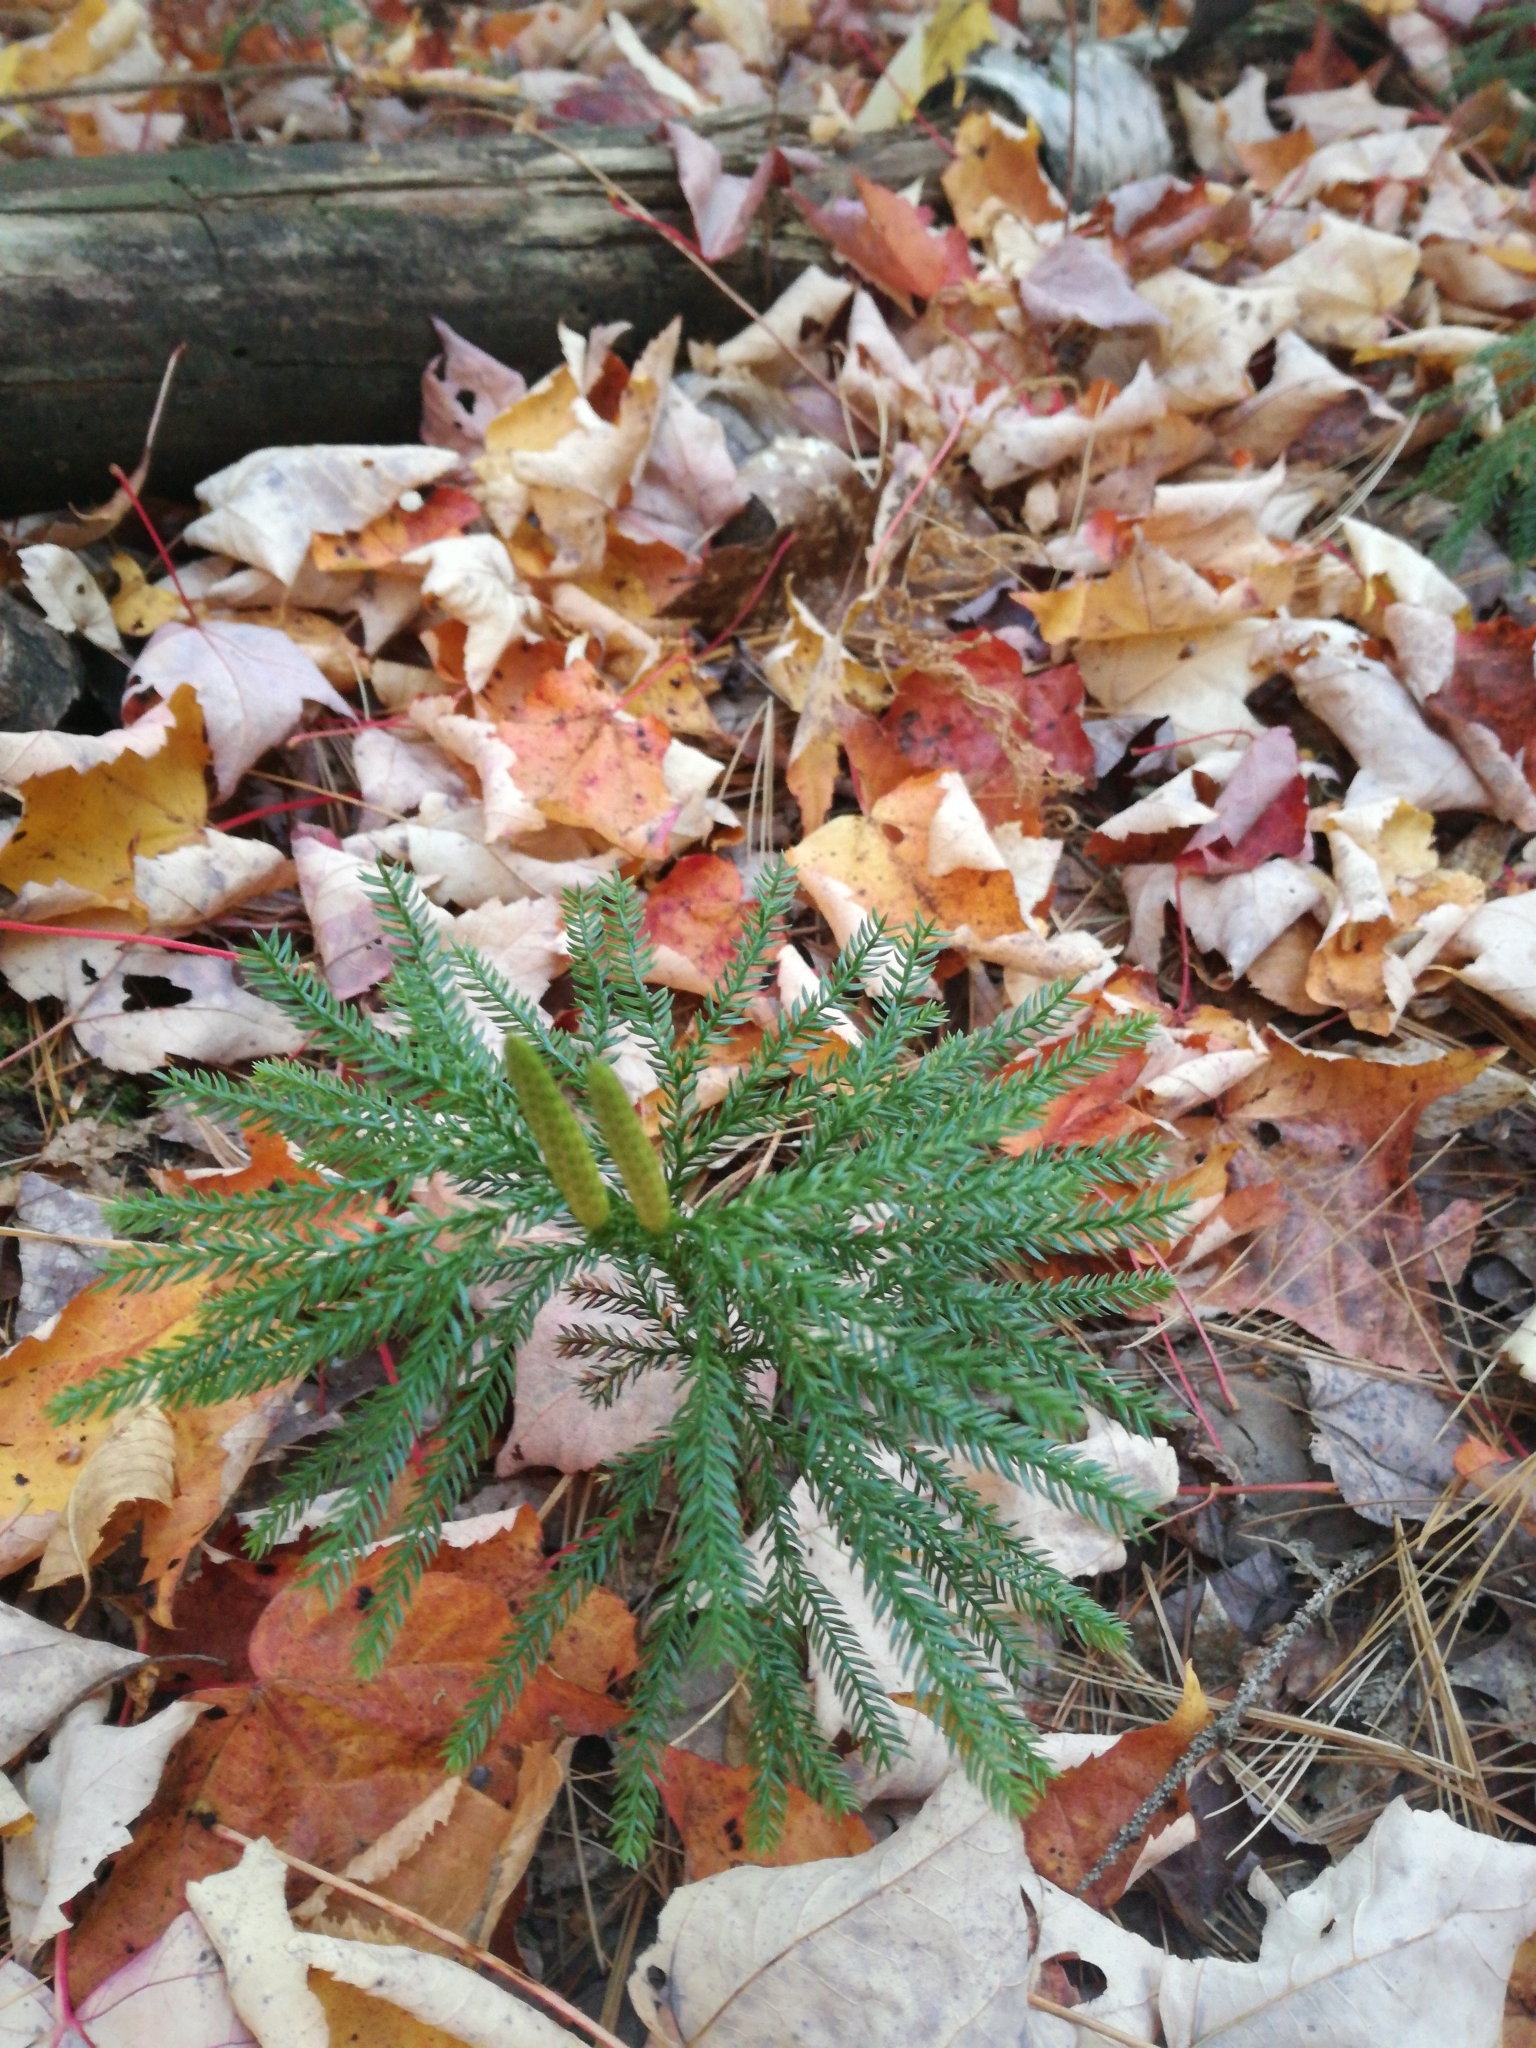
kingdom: Plantae
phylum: Tracheophyta
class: Lycopodiopsida
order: Lycopodiales
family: Lycopodiaceae
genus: Dendrolycopodium
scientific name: Dendrolycopodium obscurum
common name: Common ground-pine
